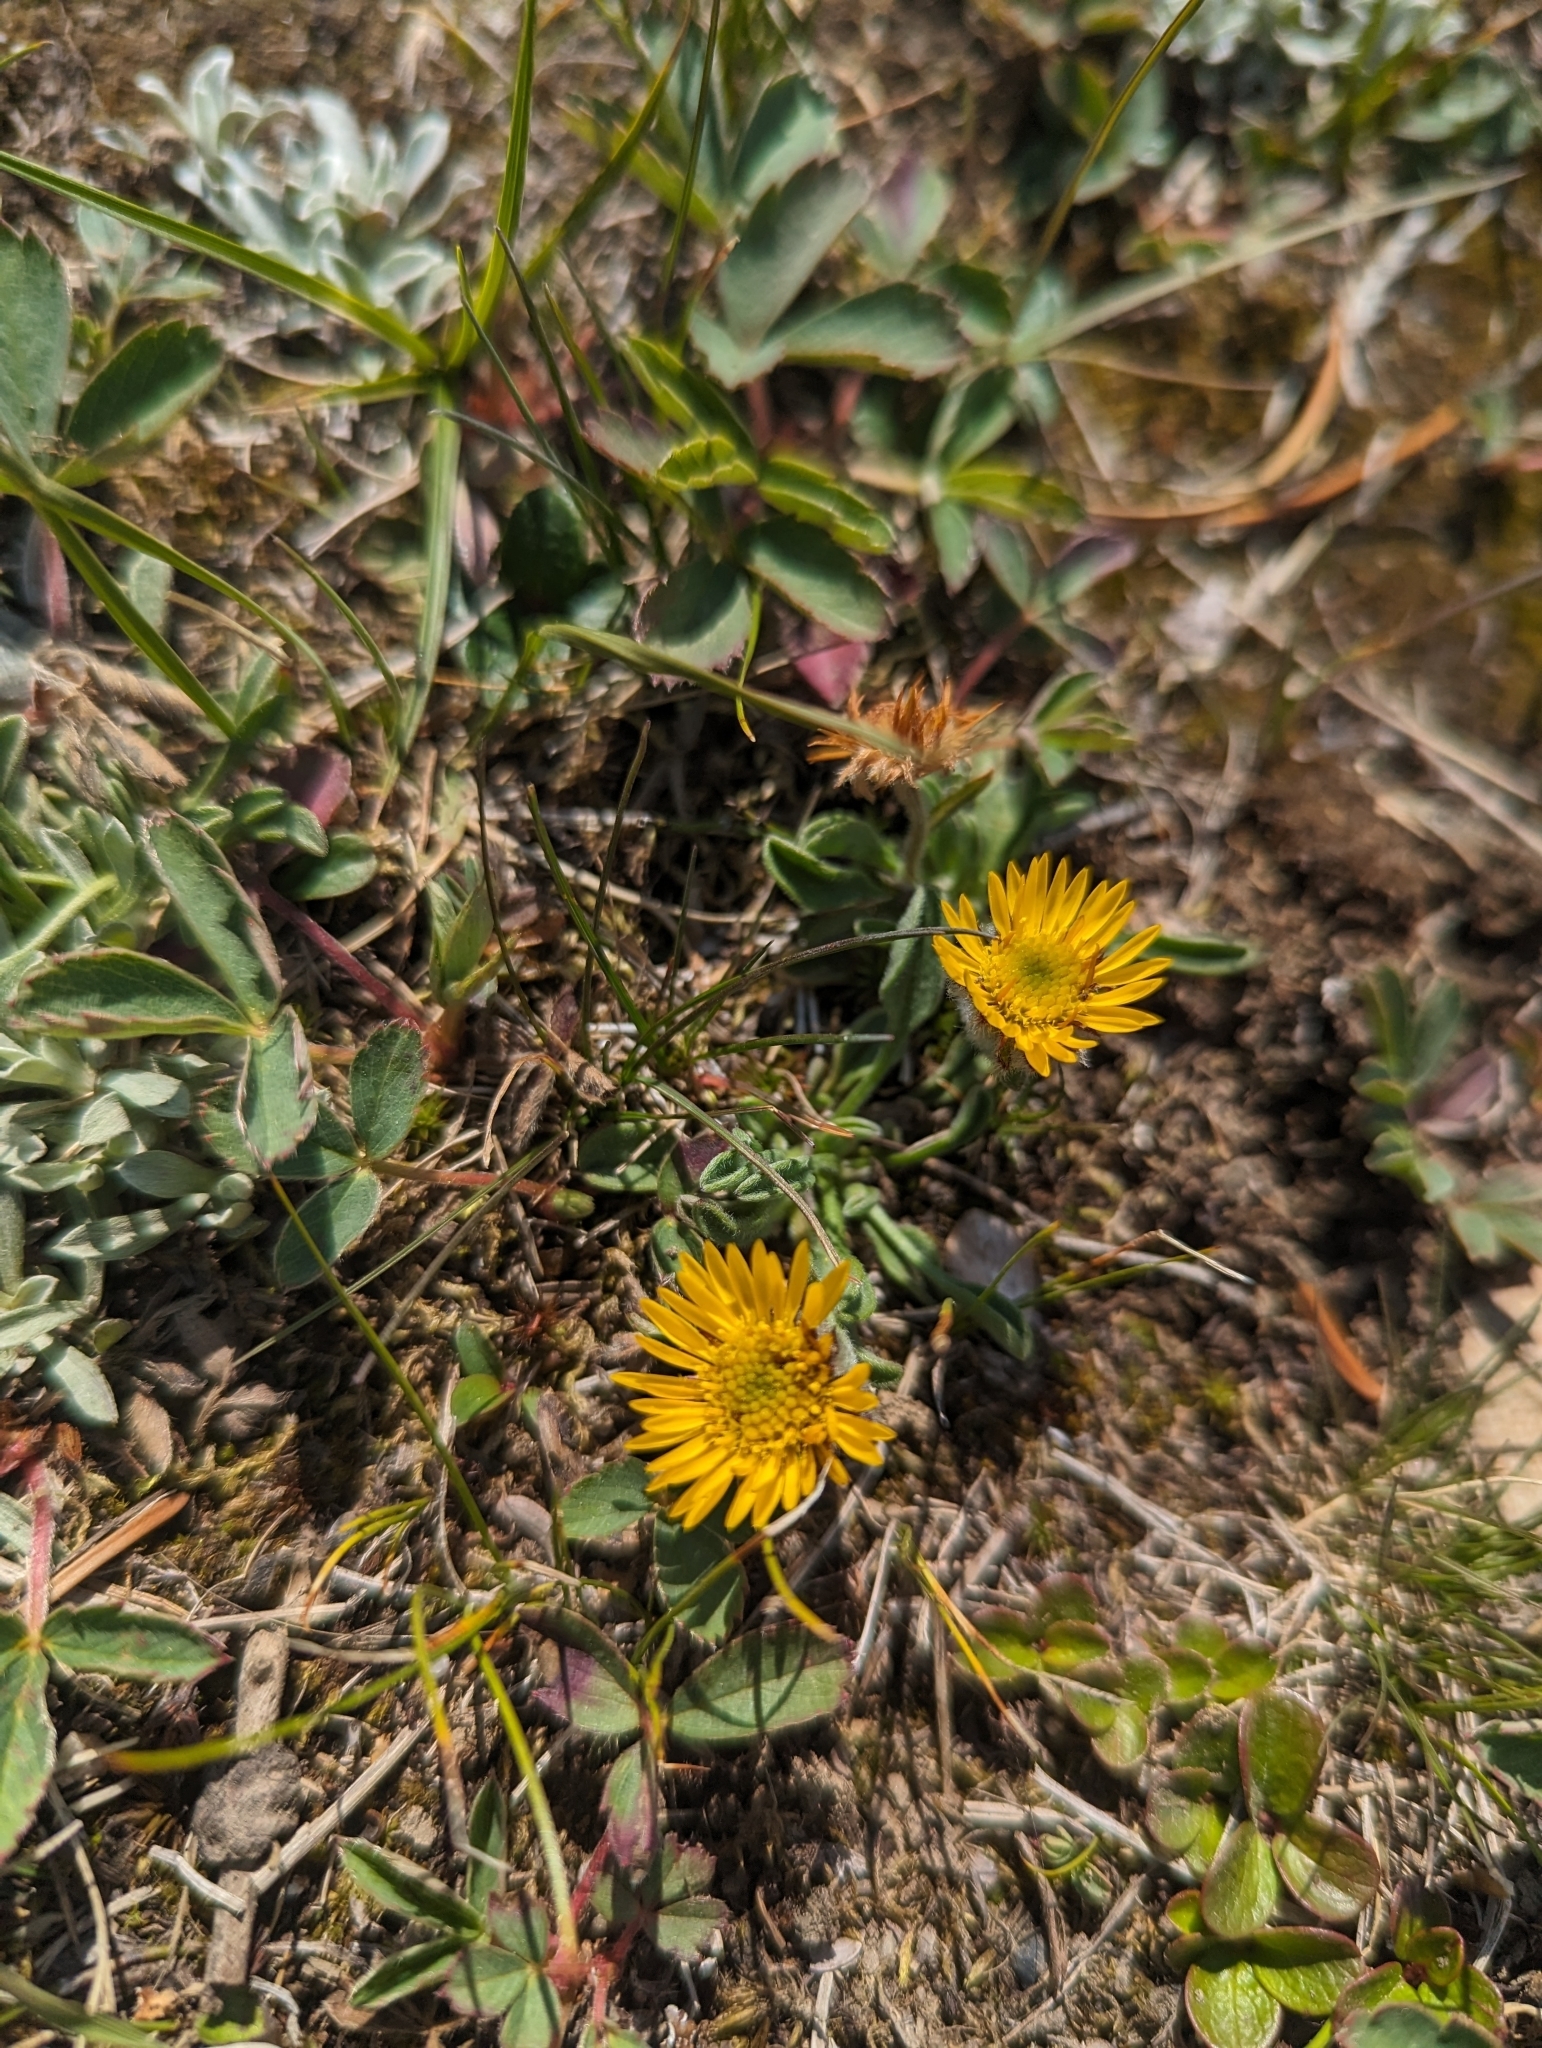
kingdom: Plantae
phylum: Tracheophyta
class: Magnoliopsida
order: Asterales
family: Asteraceae
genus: Erigeron
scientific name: Erigeron aureus
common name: Alpine yellow fleabane
